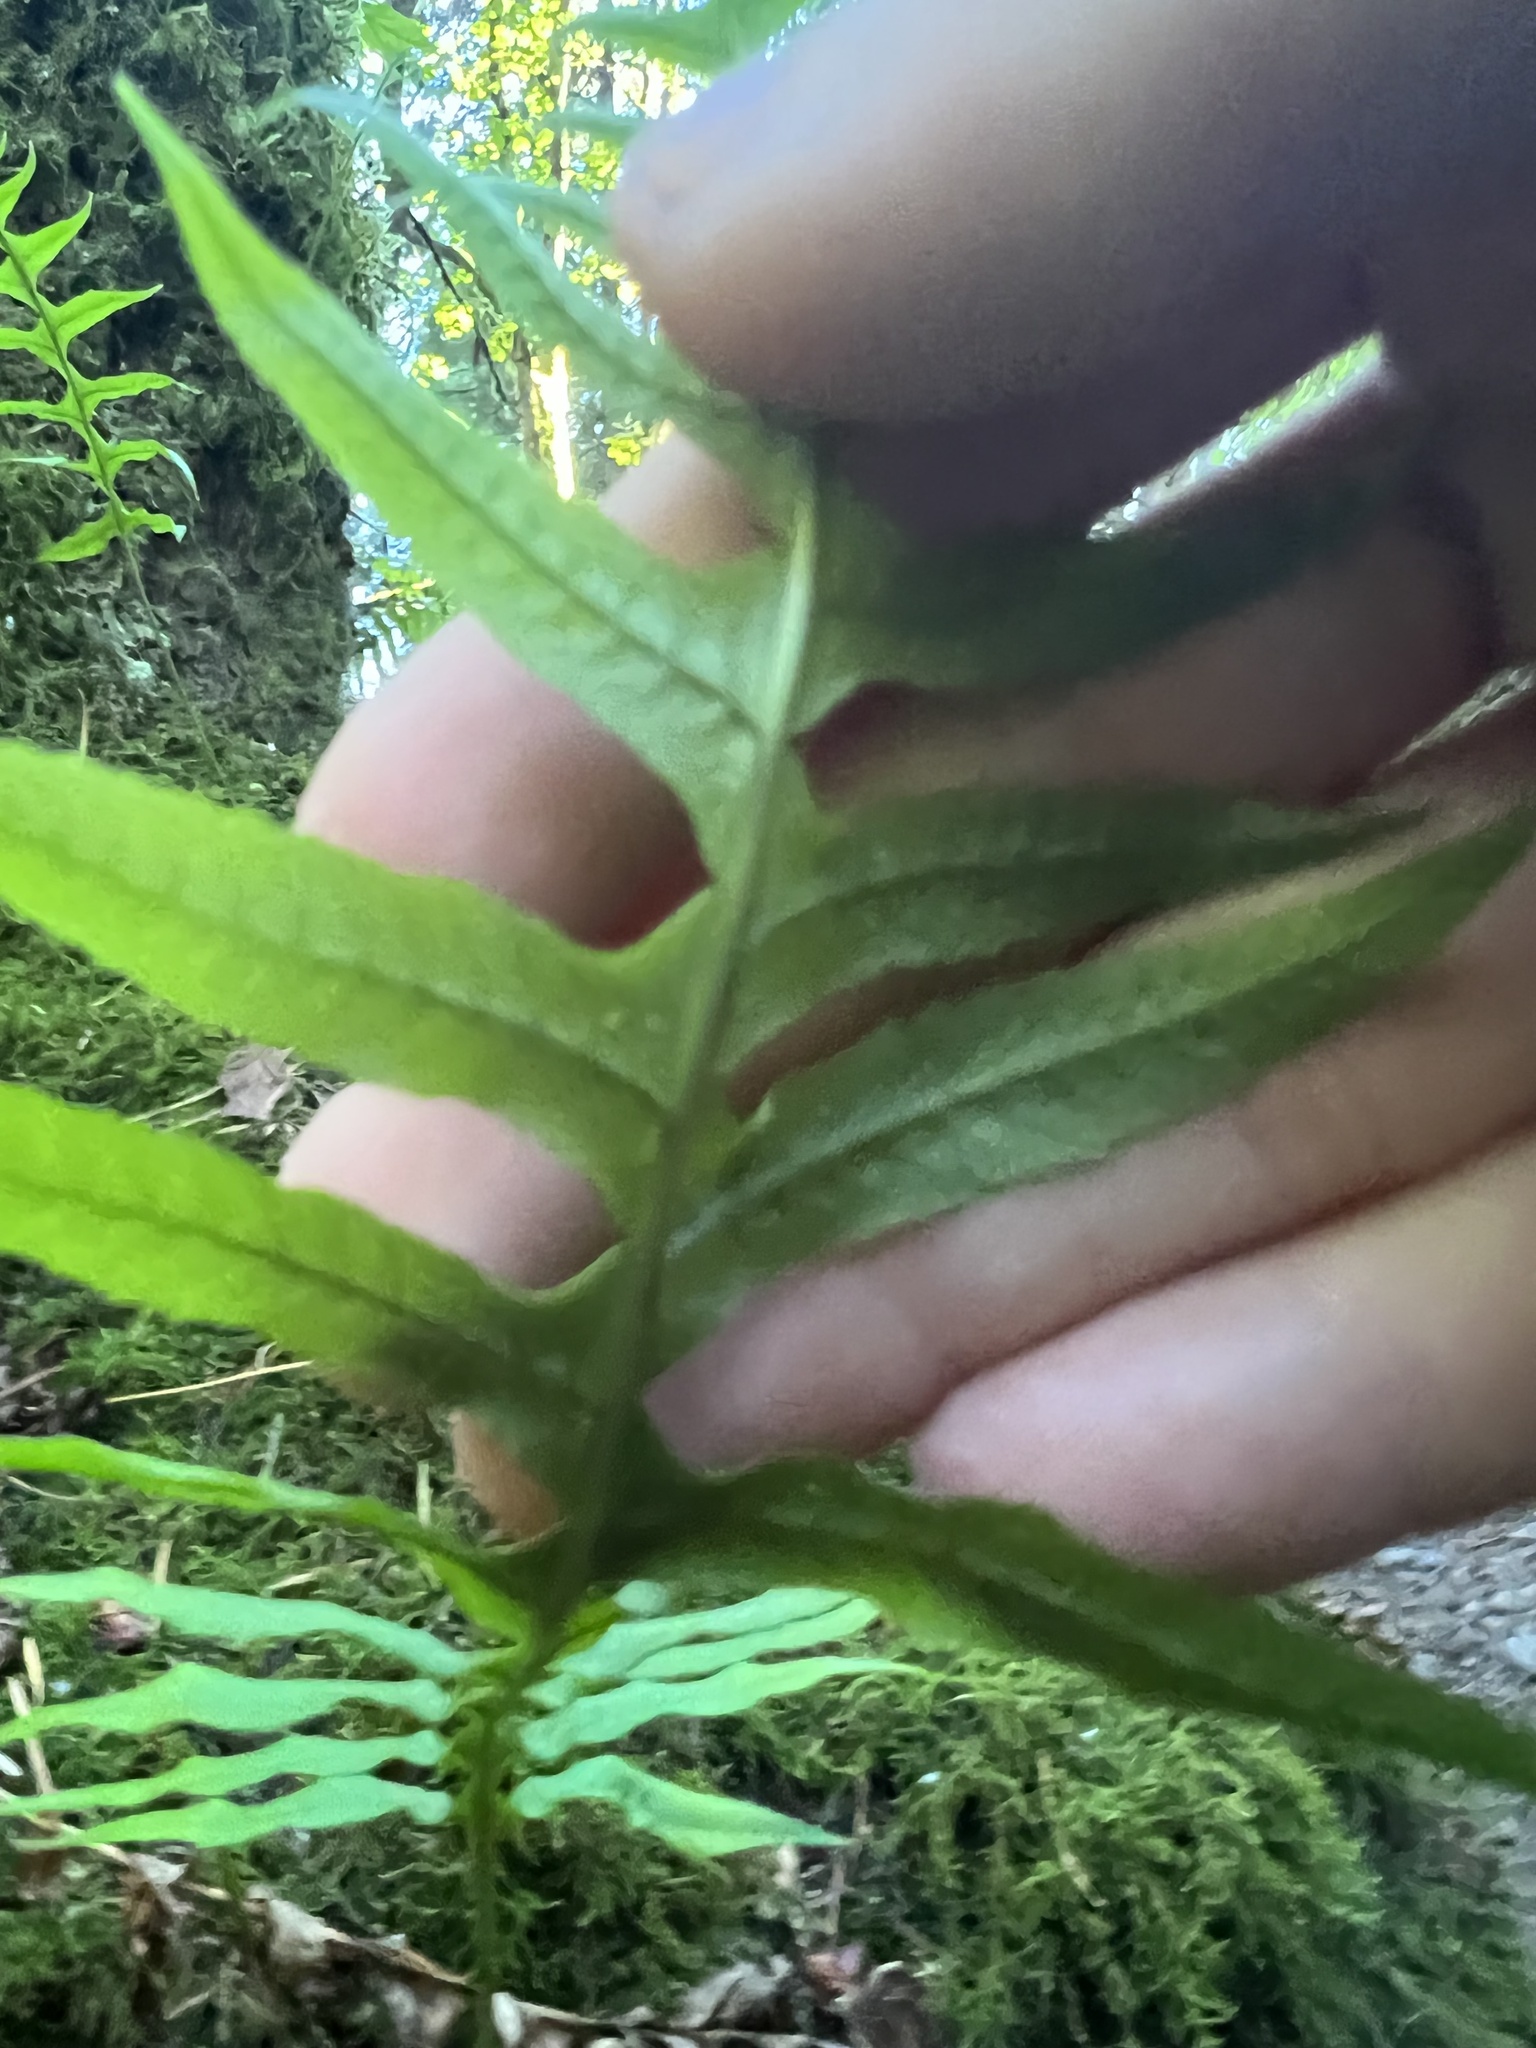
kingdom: Plantae
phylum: Tracheophyta
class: Polypodiopsida
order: Polypodiales
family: Polypodiaceae
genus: Polypodium
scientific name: Polypodium glycyrrhiza
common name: Licorice fern
